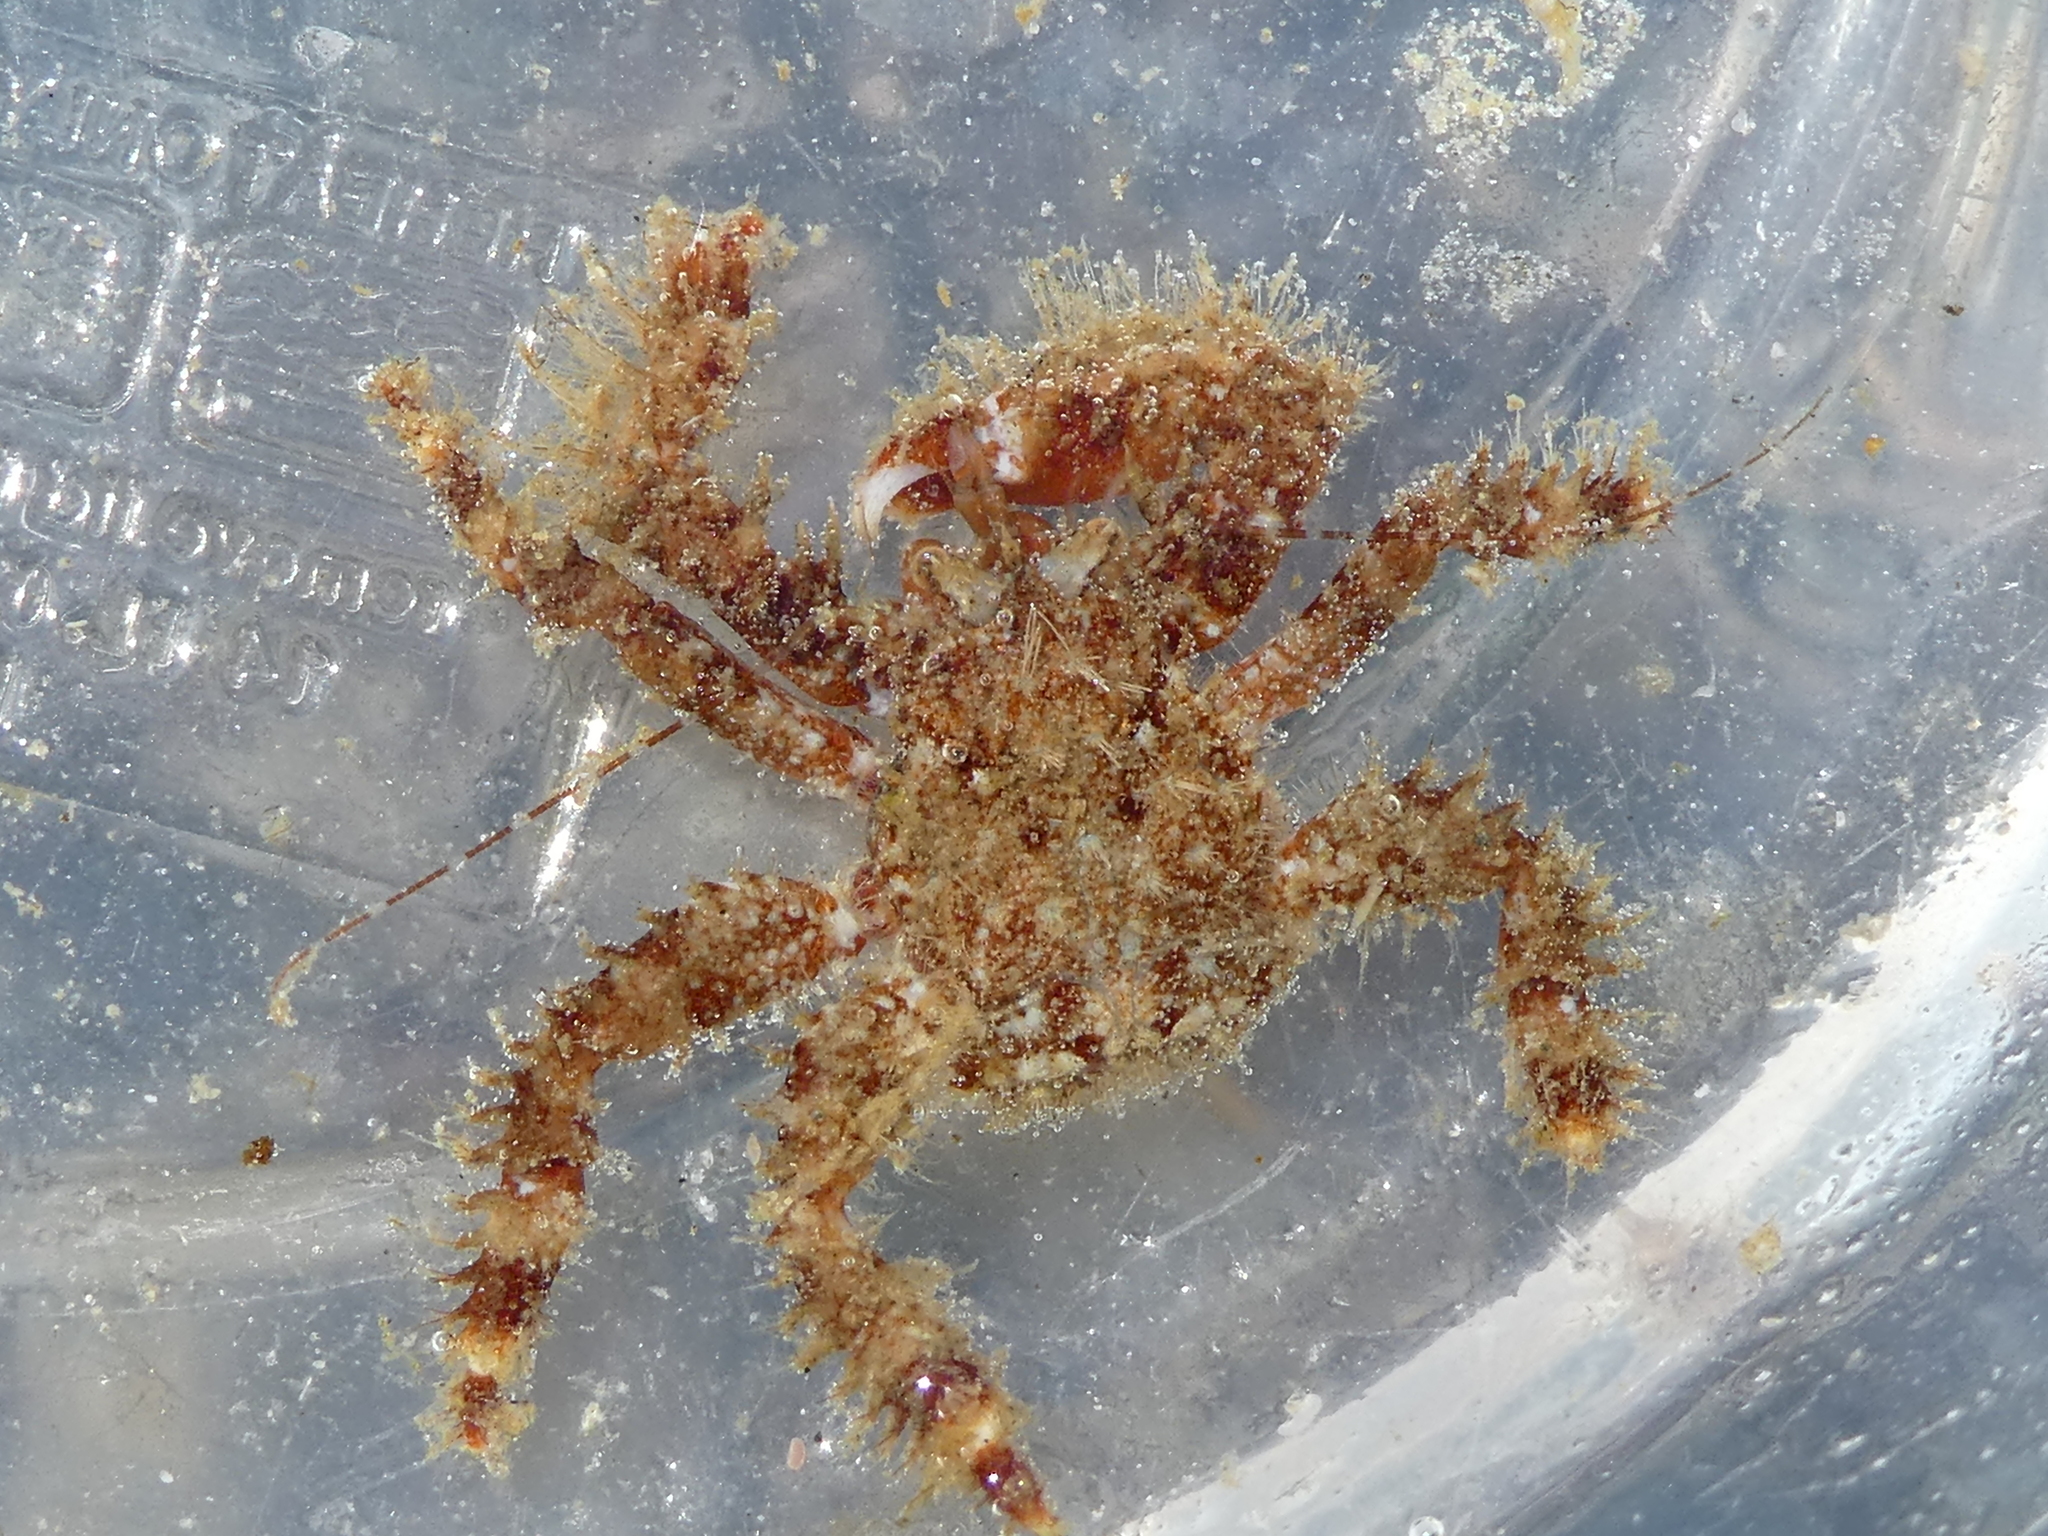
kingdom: Animalia
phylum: Arthropoda
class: Malacostraca
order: Decapoda
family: Hapalogastridae
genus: Hapalogaster
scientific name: Hapalogaster mertensii
